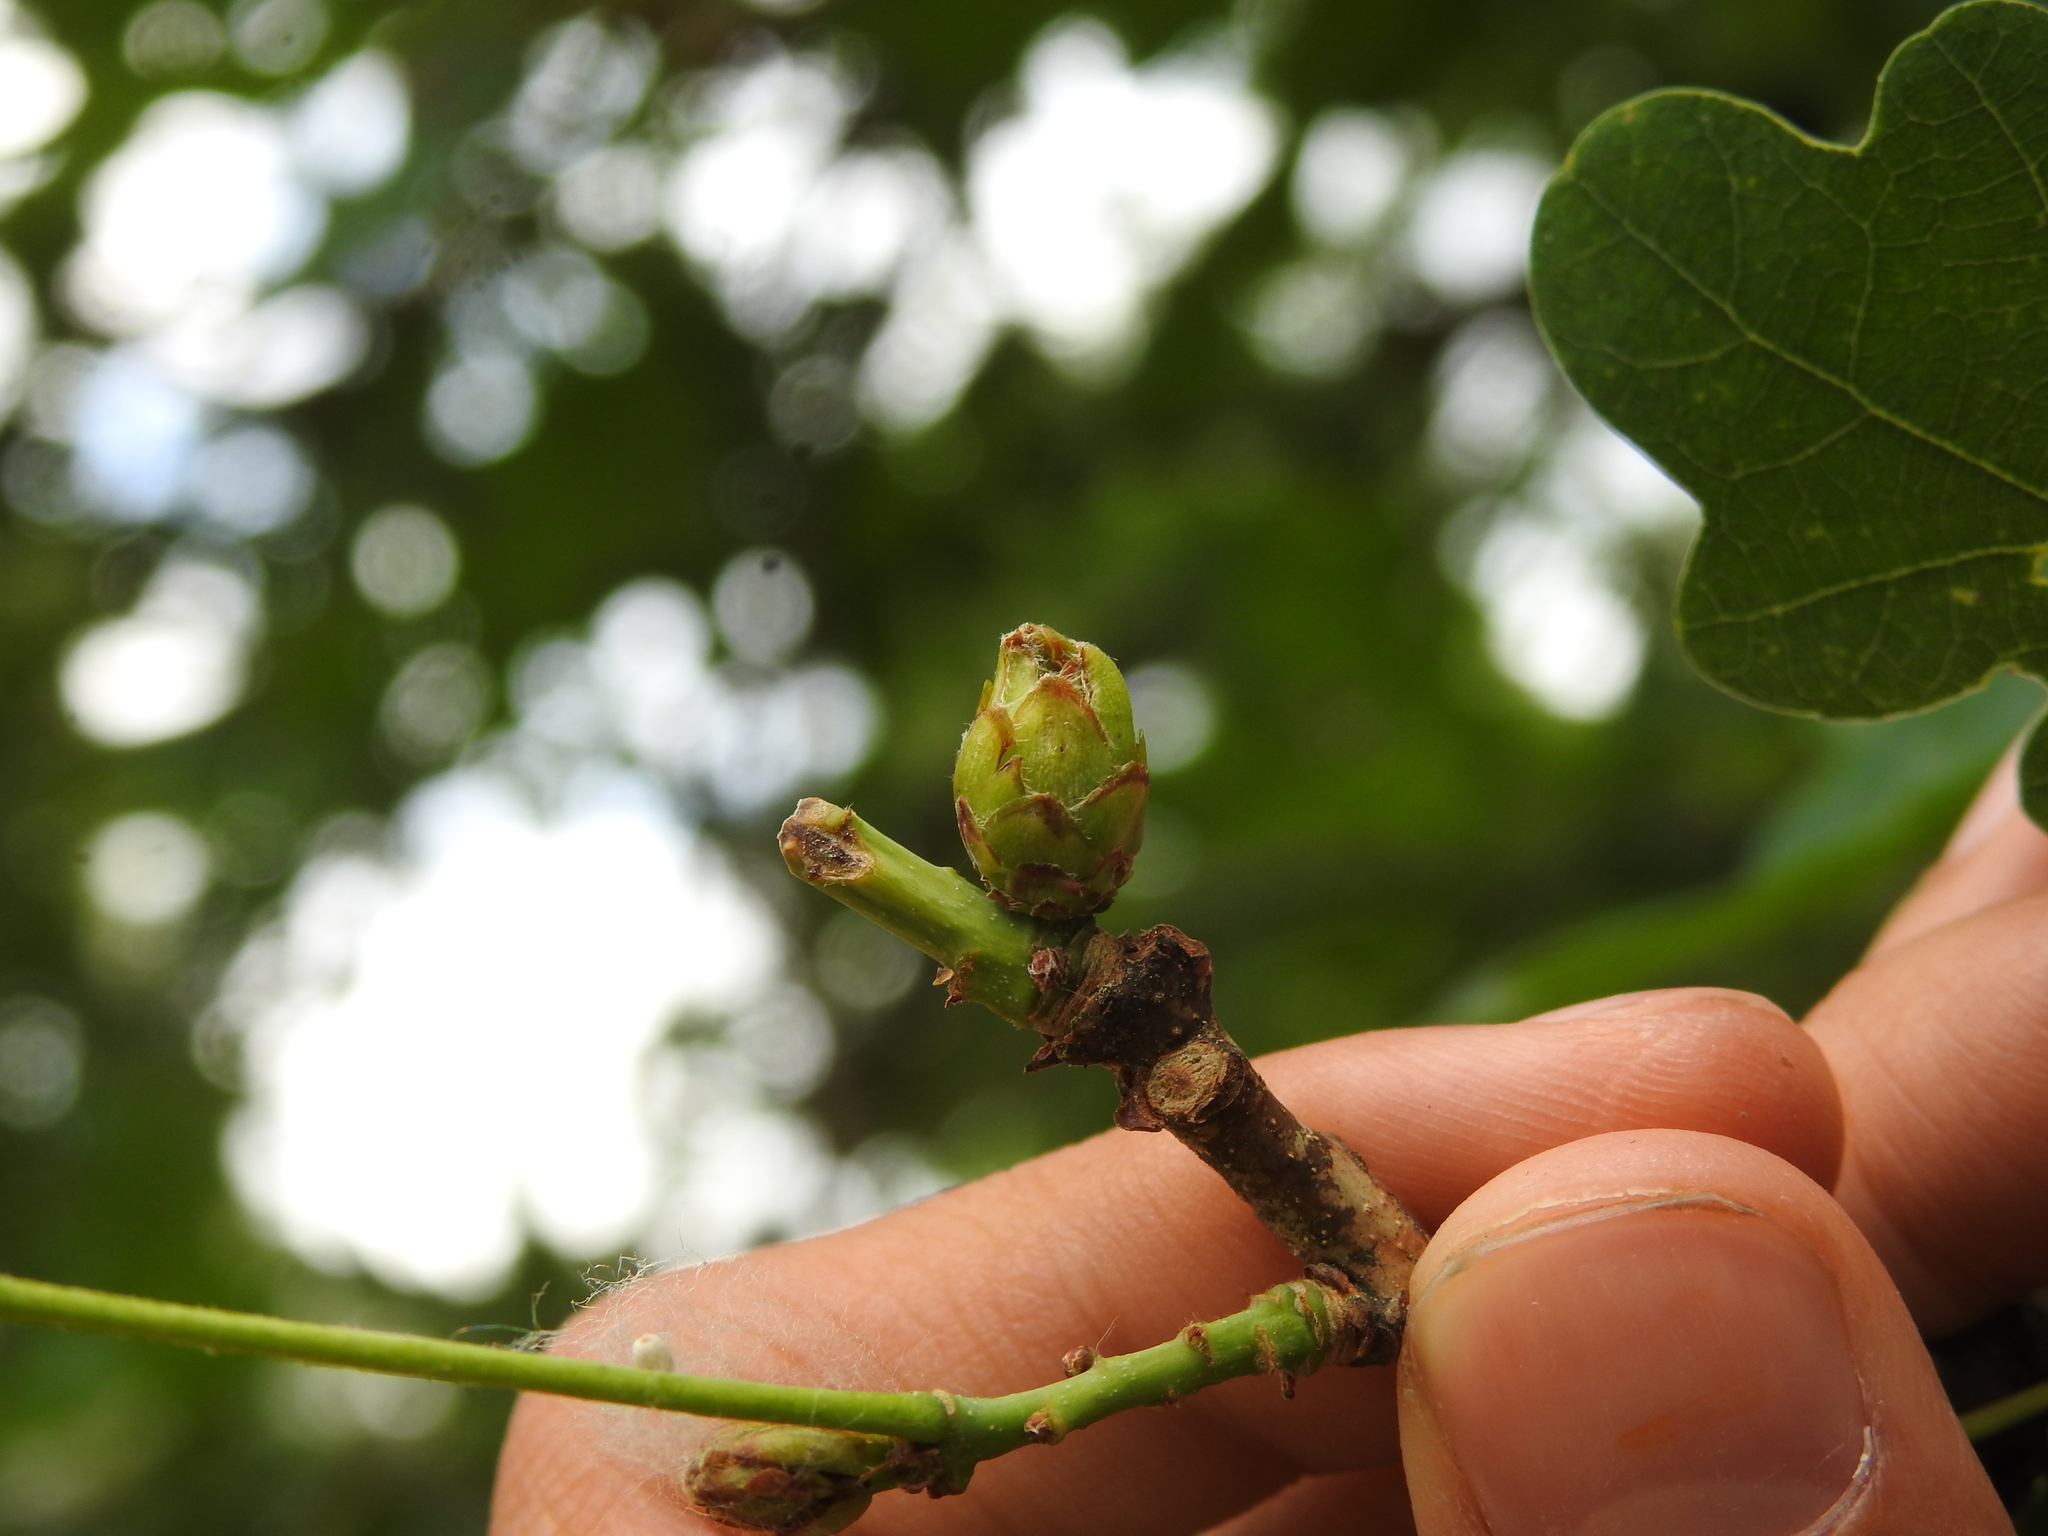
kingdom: Animalia
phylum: Arthropoda
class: Insecta
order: Hymenoptera
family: Cynipidae
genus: Andricus
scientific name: Andricus foecundatrix
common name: Artichoke gall
